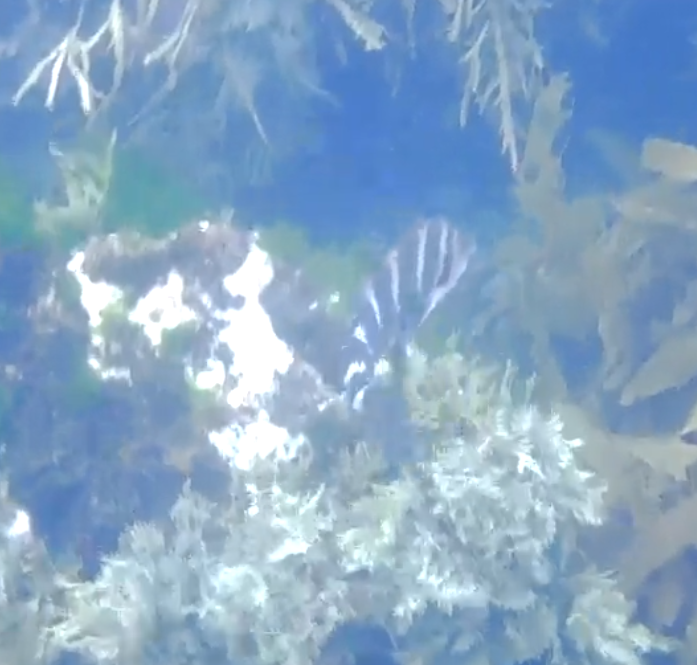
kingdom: Animalia
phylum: Chordata
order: Perciformes
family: Cheilodactylidae
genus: Cheilodactylus
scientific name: Cheilodactylus spectabilis
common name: Red moki
